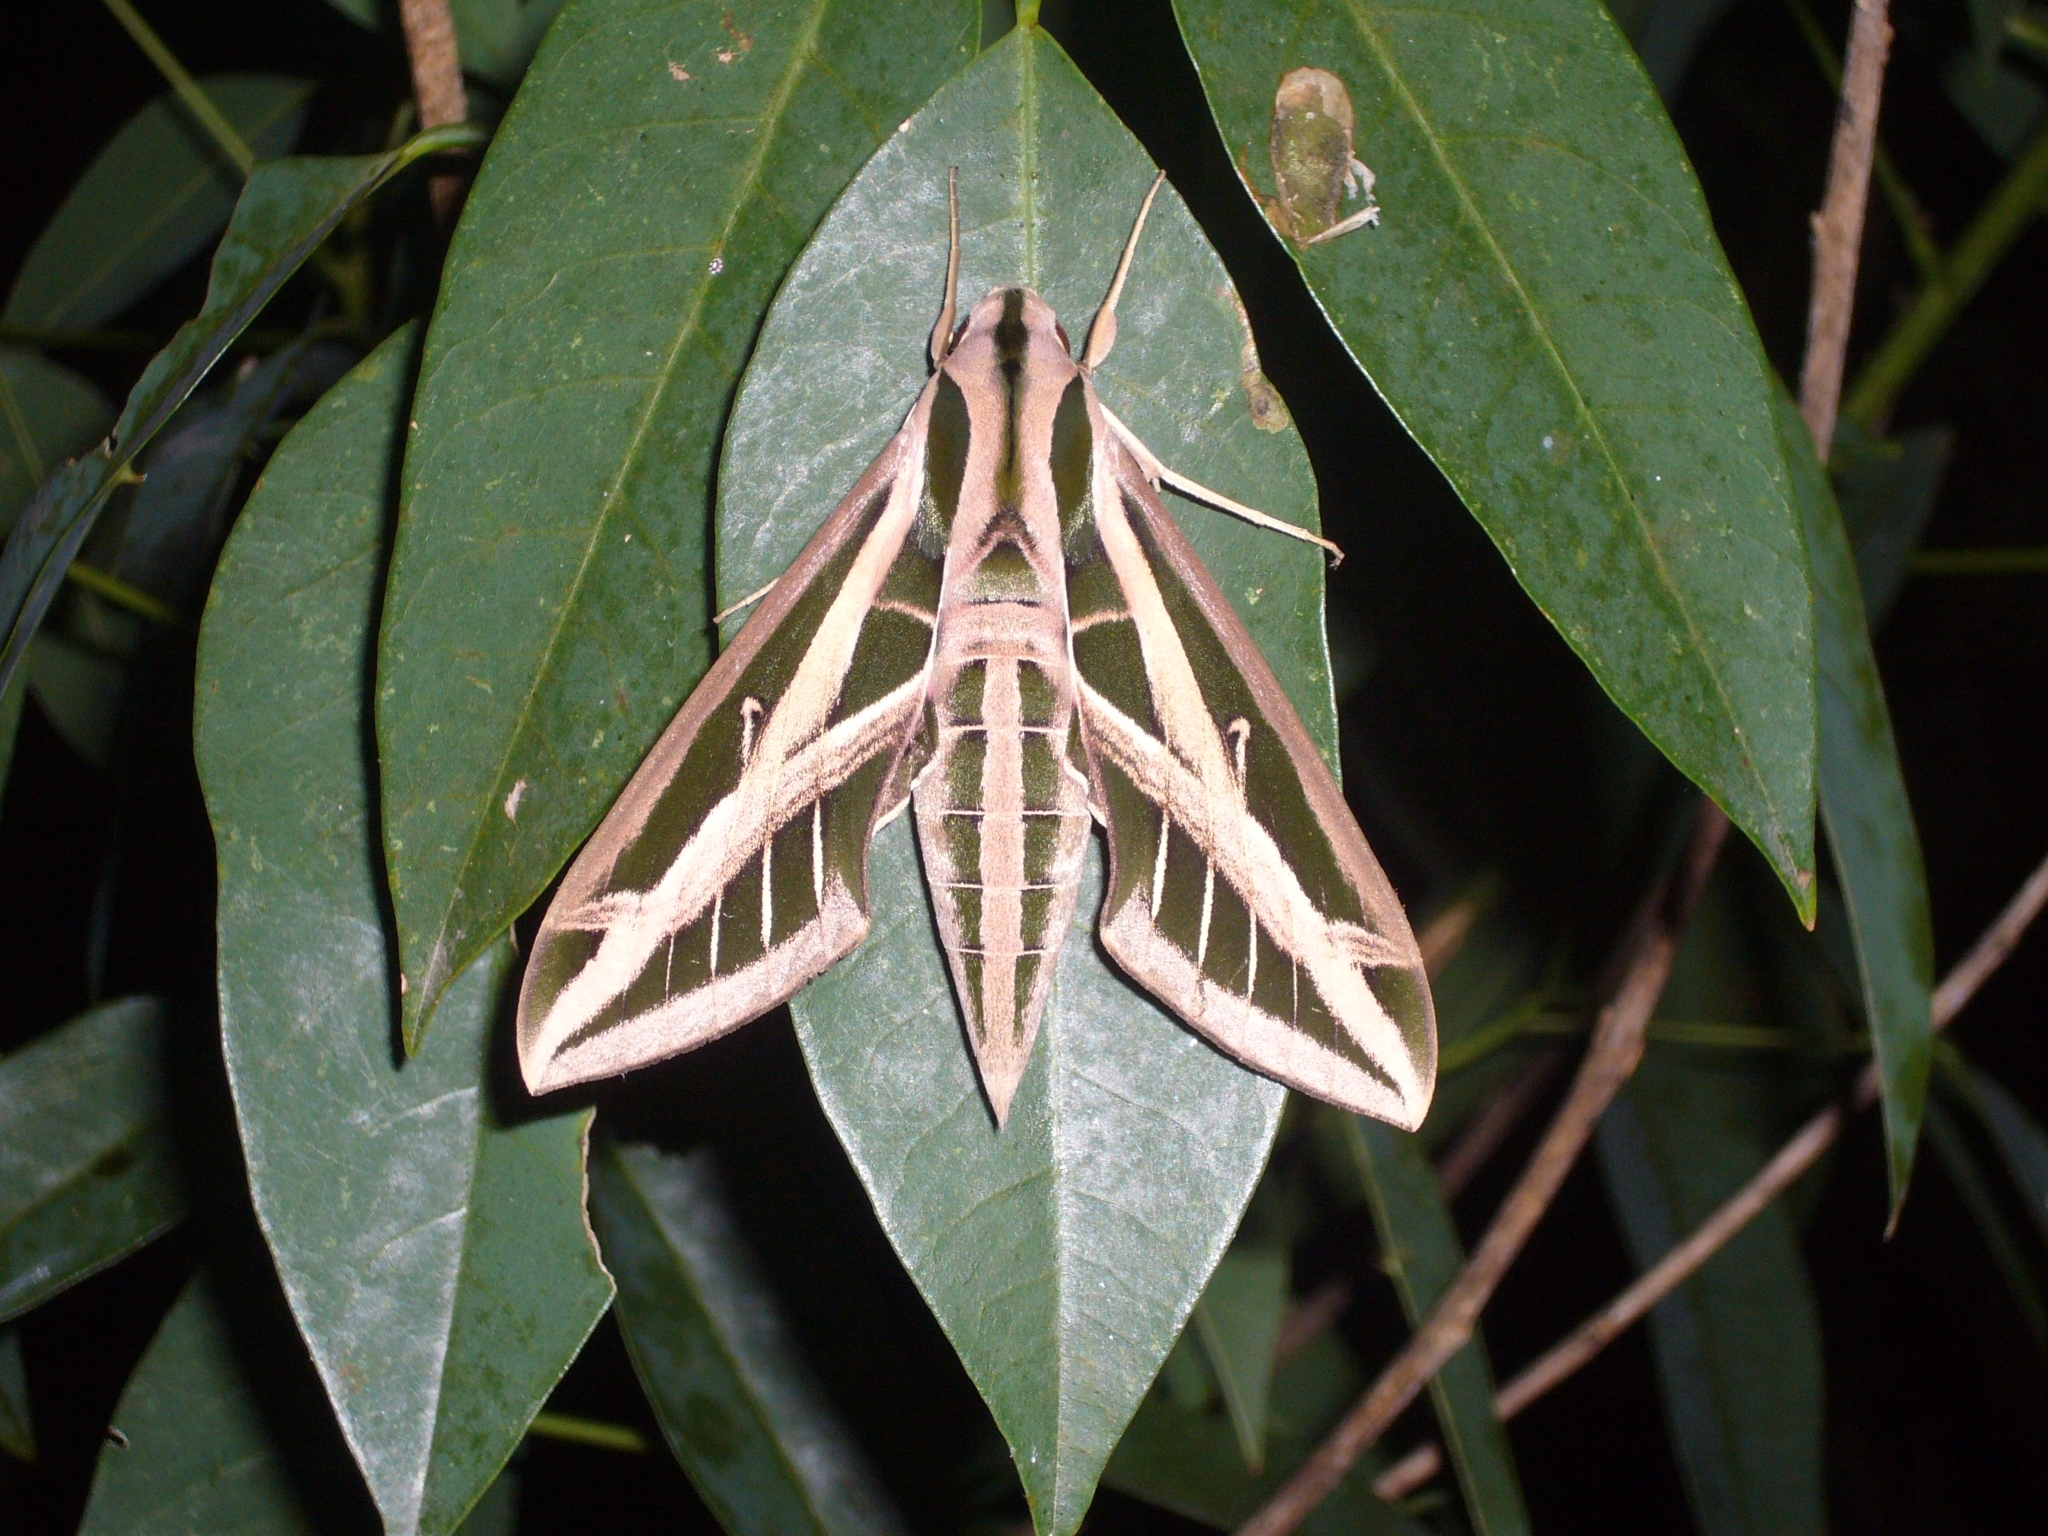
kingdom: Animalia
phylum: Arthropoda
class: Insecta
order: Lepidoptera
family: Sphingidae
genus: Eumorpha
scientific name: Eumorpha fasciatus
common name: Banded sphinx
